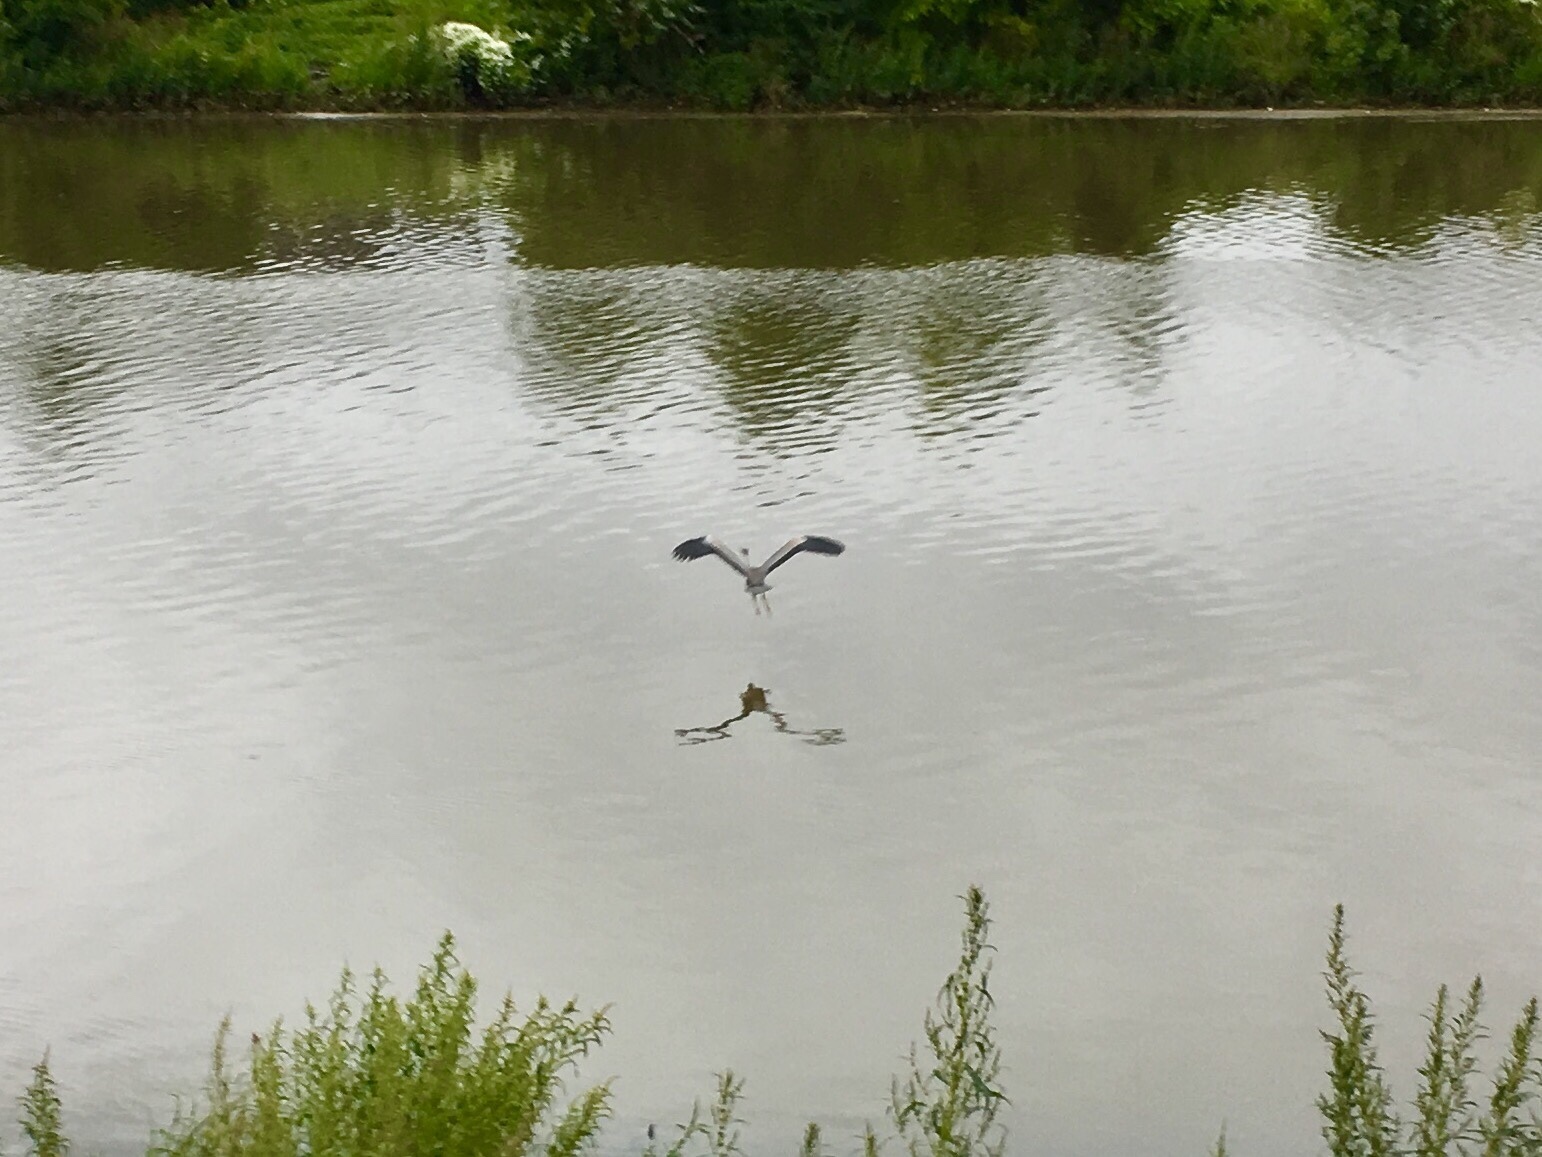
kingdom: Animalia
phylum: Chordata
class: Aves
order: Pelecaniformes
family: Ardeidae
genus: Ardea
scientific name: Ardea herodias
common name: Great blue heron
